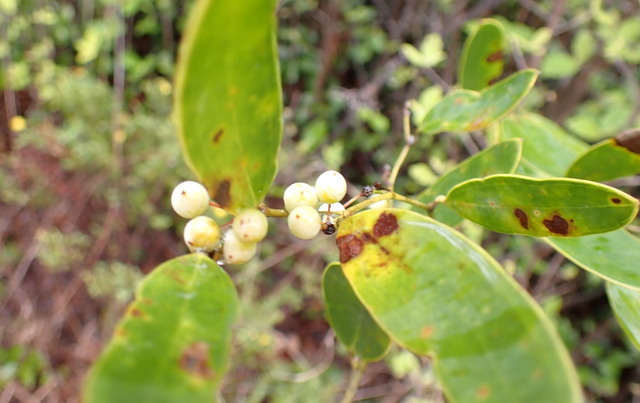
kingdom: Plantae
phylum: Tracheophyta
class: Liliopsida
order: Liliales
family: Smilacaceae
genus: Smilax
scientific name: Smilax laurifolia
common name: Bamboovine
